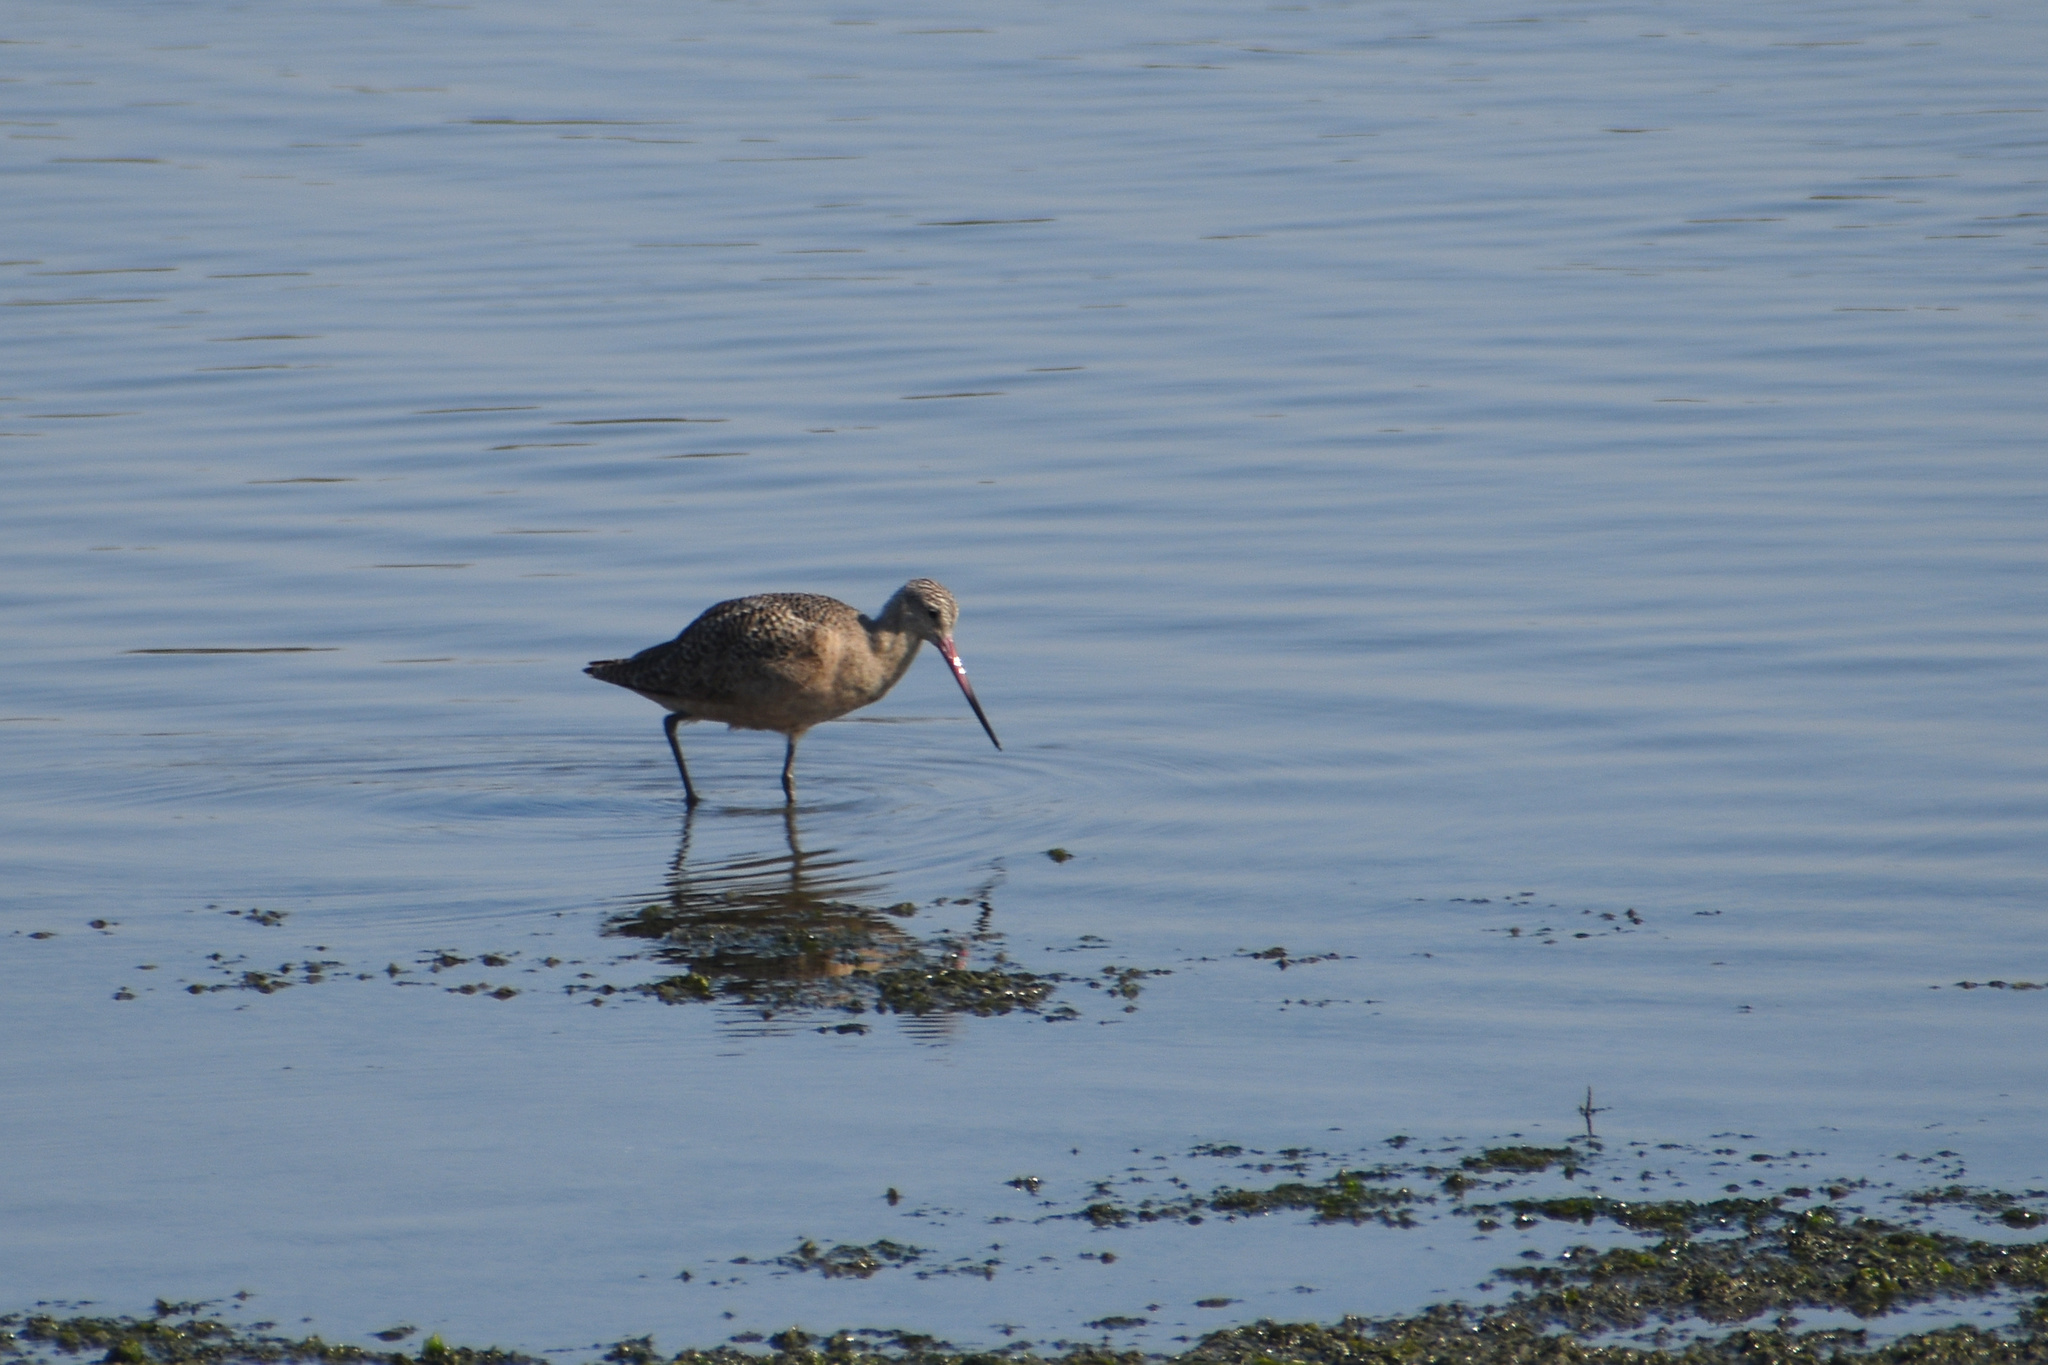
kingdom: Animalia
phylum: Chordata
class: Aves
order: Charadriiformes
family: Scolopacidae
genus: Limosa
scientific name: Limosa fedoa
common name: Marbled godwit
